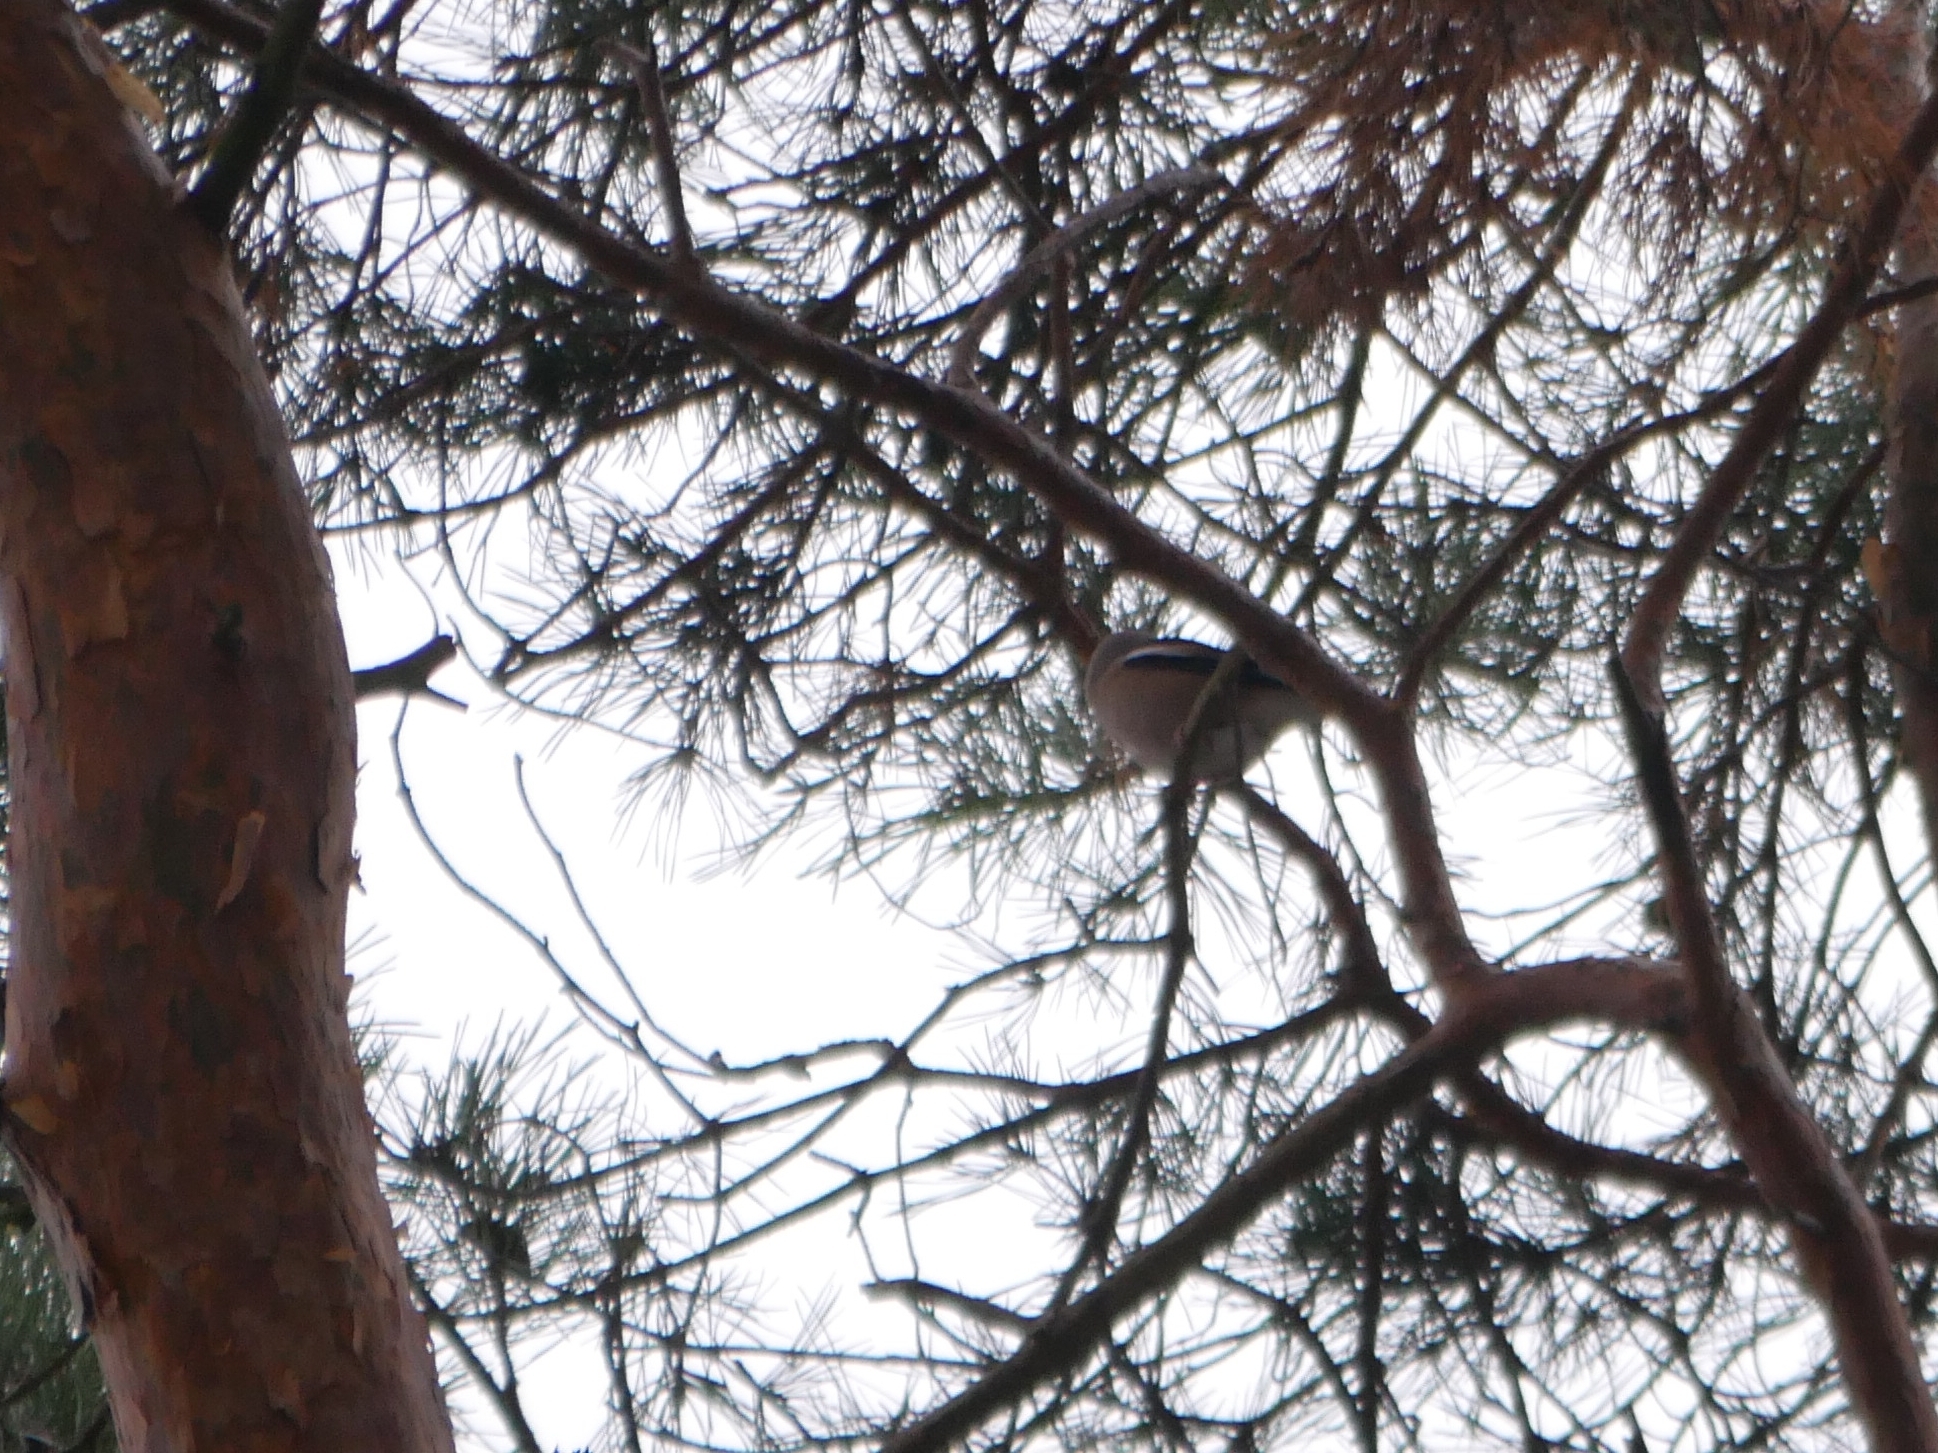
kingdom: Animalia
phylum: Chordata
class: Aves
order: Passeriformes
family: Fringillidae
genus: Coccothraustes
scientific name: Coccothraustes coccothraustes
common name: Hawfinch
